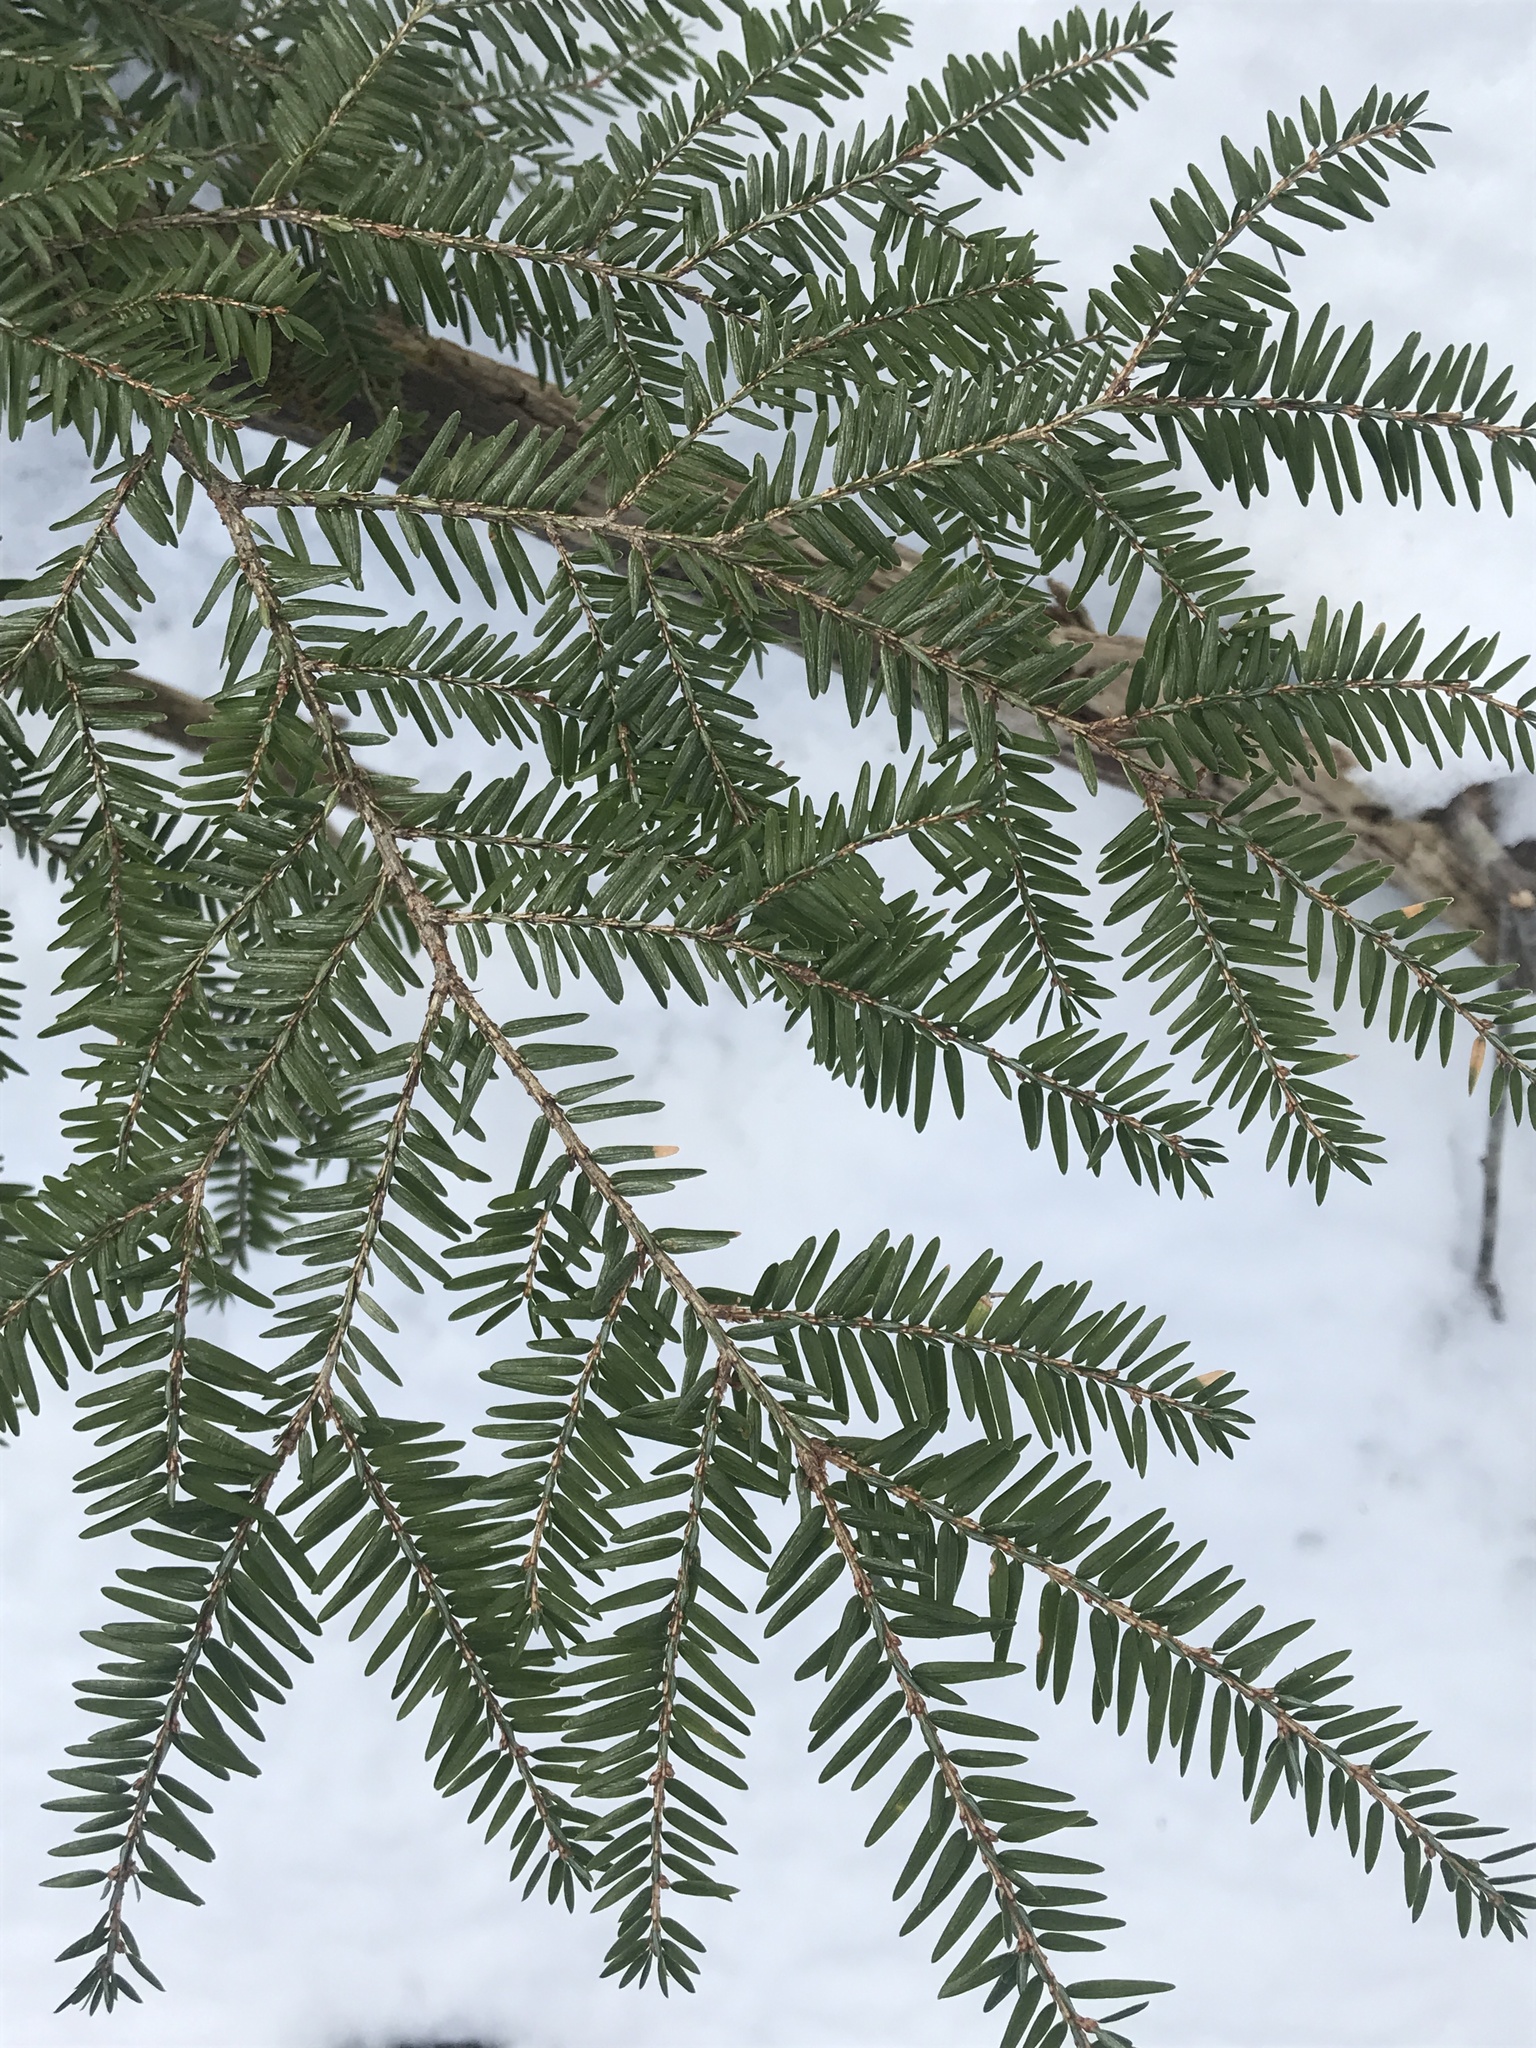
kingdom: Plantae
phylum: Tracheophyta
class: Pinopsida
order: Pinales
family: Pinaceae
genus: Tsuga
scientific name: Tsuga canadensis
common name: Eastern hemlock
